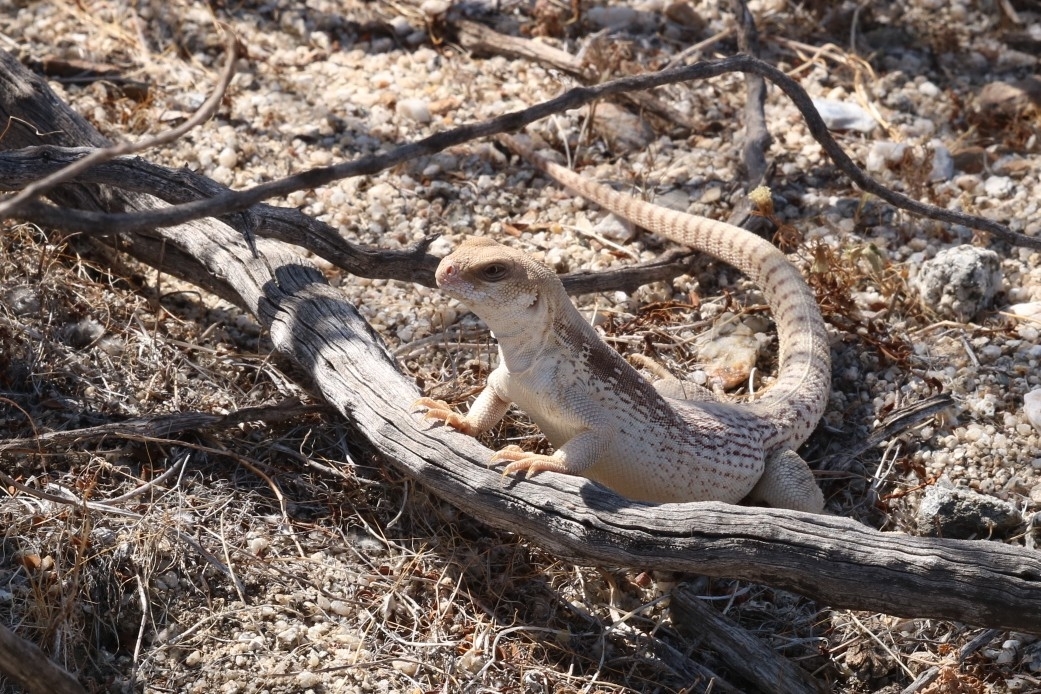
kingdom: Animalia
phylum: Chordata
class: Squamata
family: Iguanidae
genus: Dipsosaurus
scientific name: Dipsosaurus dorsalis
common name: Desert iguana
